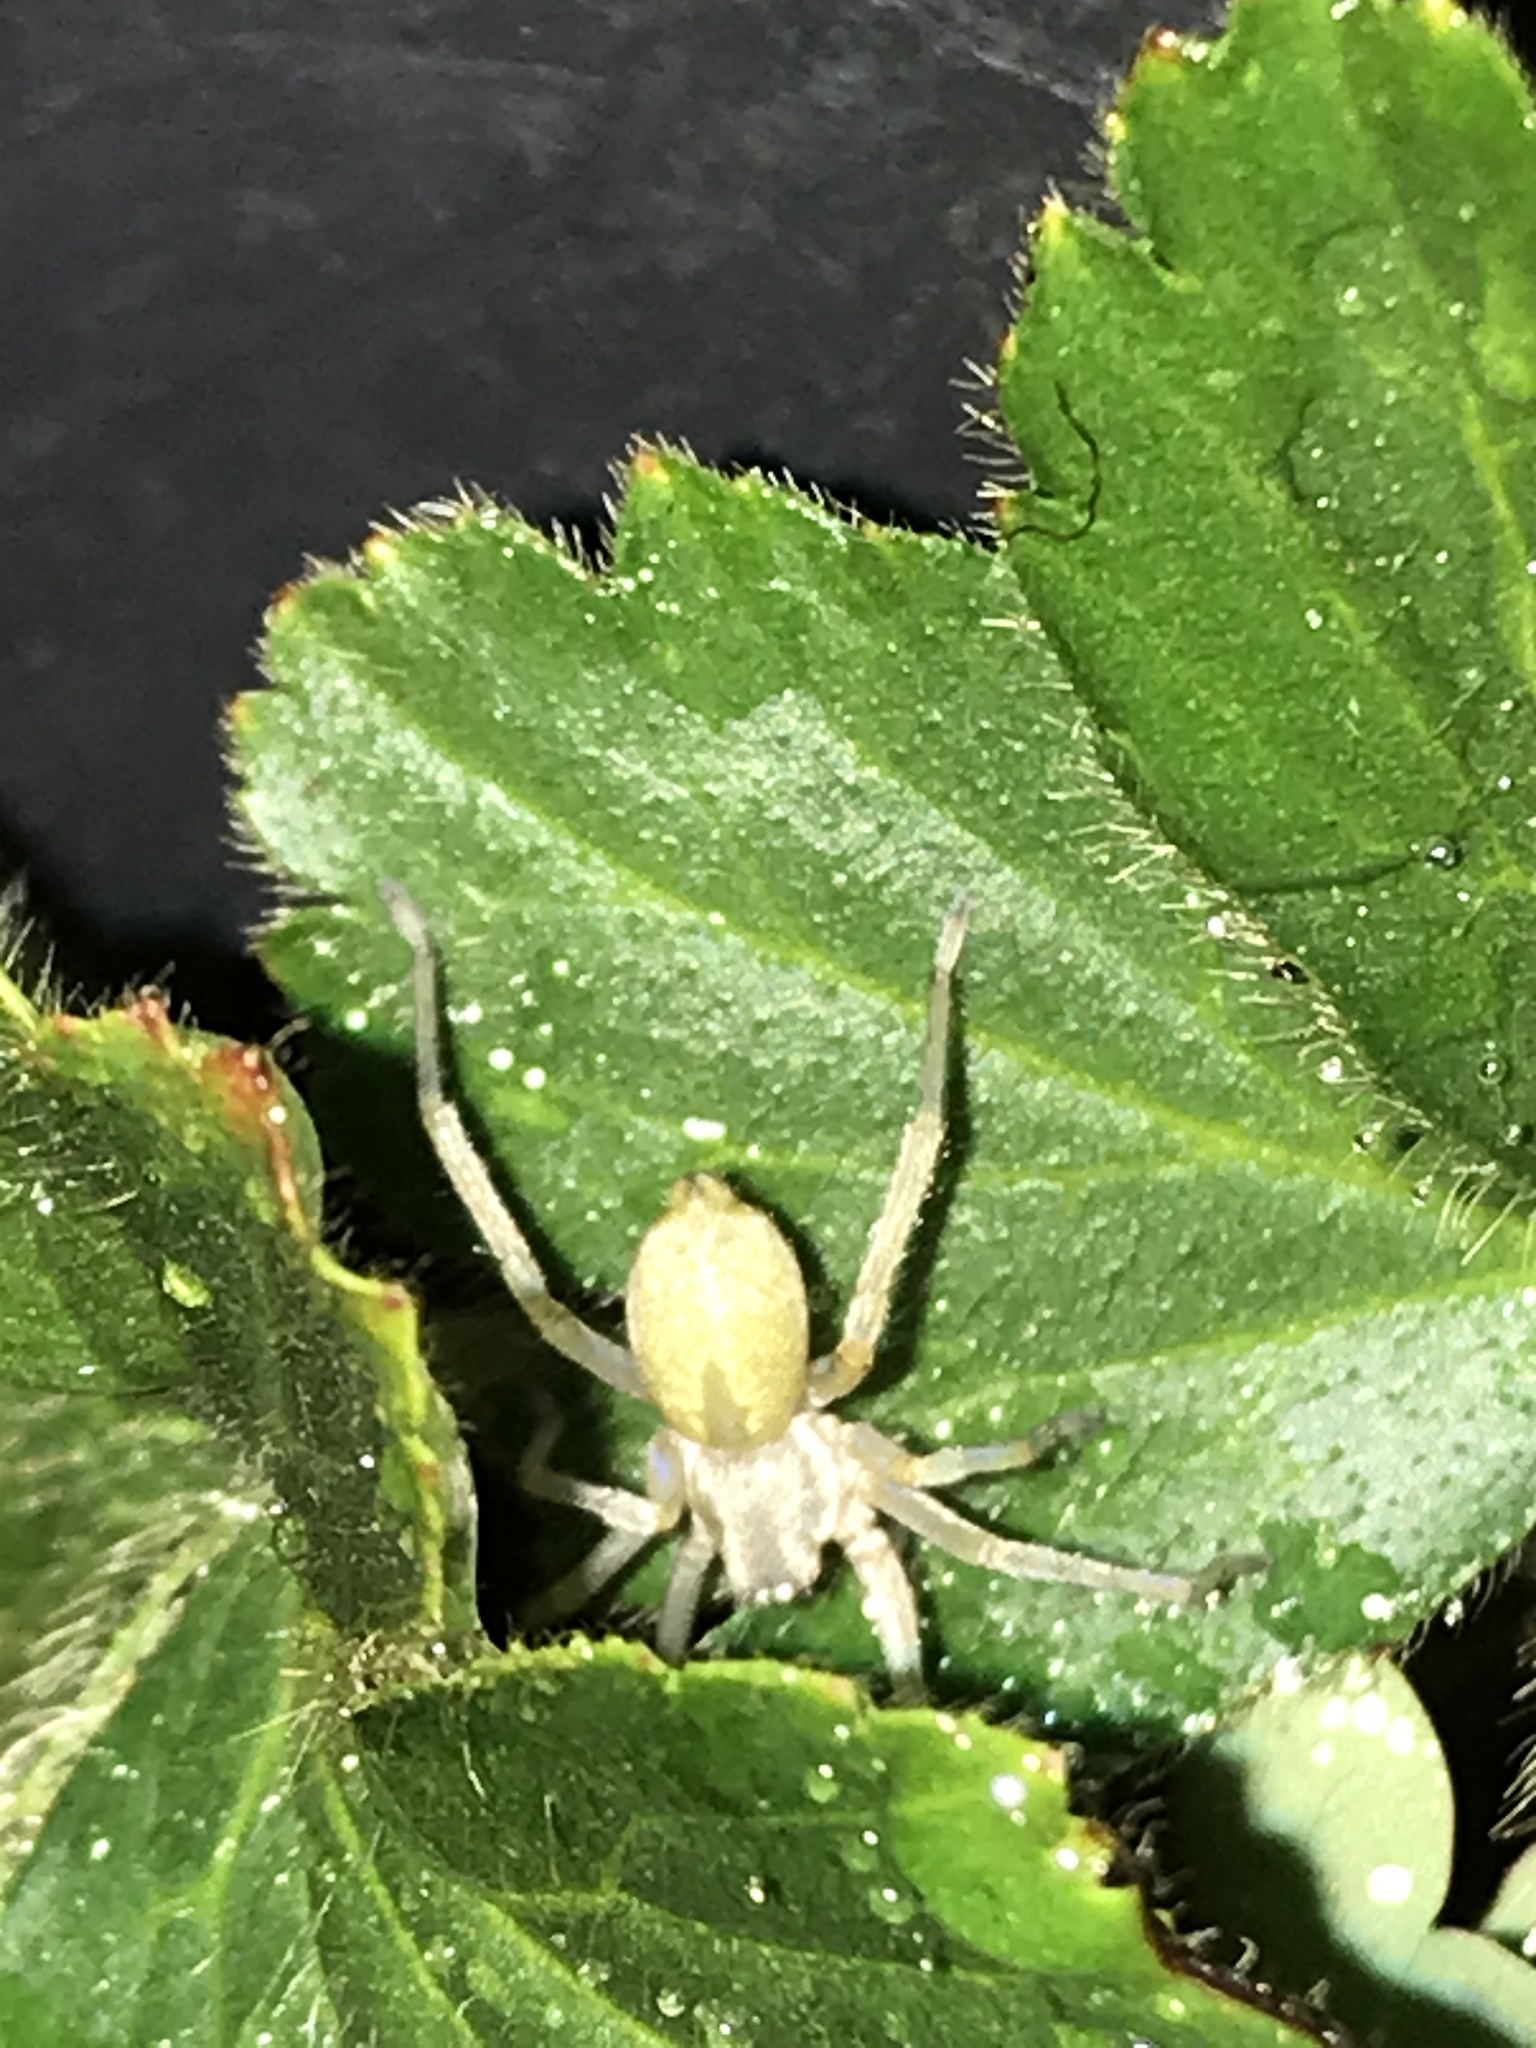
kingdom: Animalia
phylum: Arthropoda
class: Arachnida
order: Araneae
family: Cheiracanthiidae
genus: Cheiracanthium
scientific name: Cheiracanthium mildei
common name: Northern yellow sac spider
